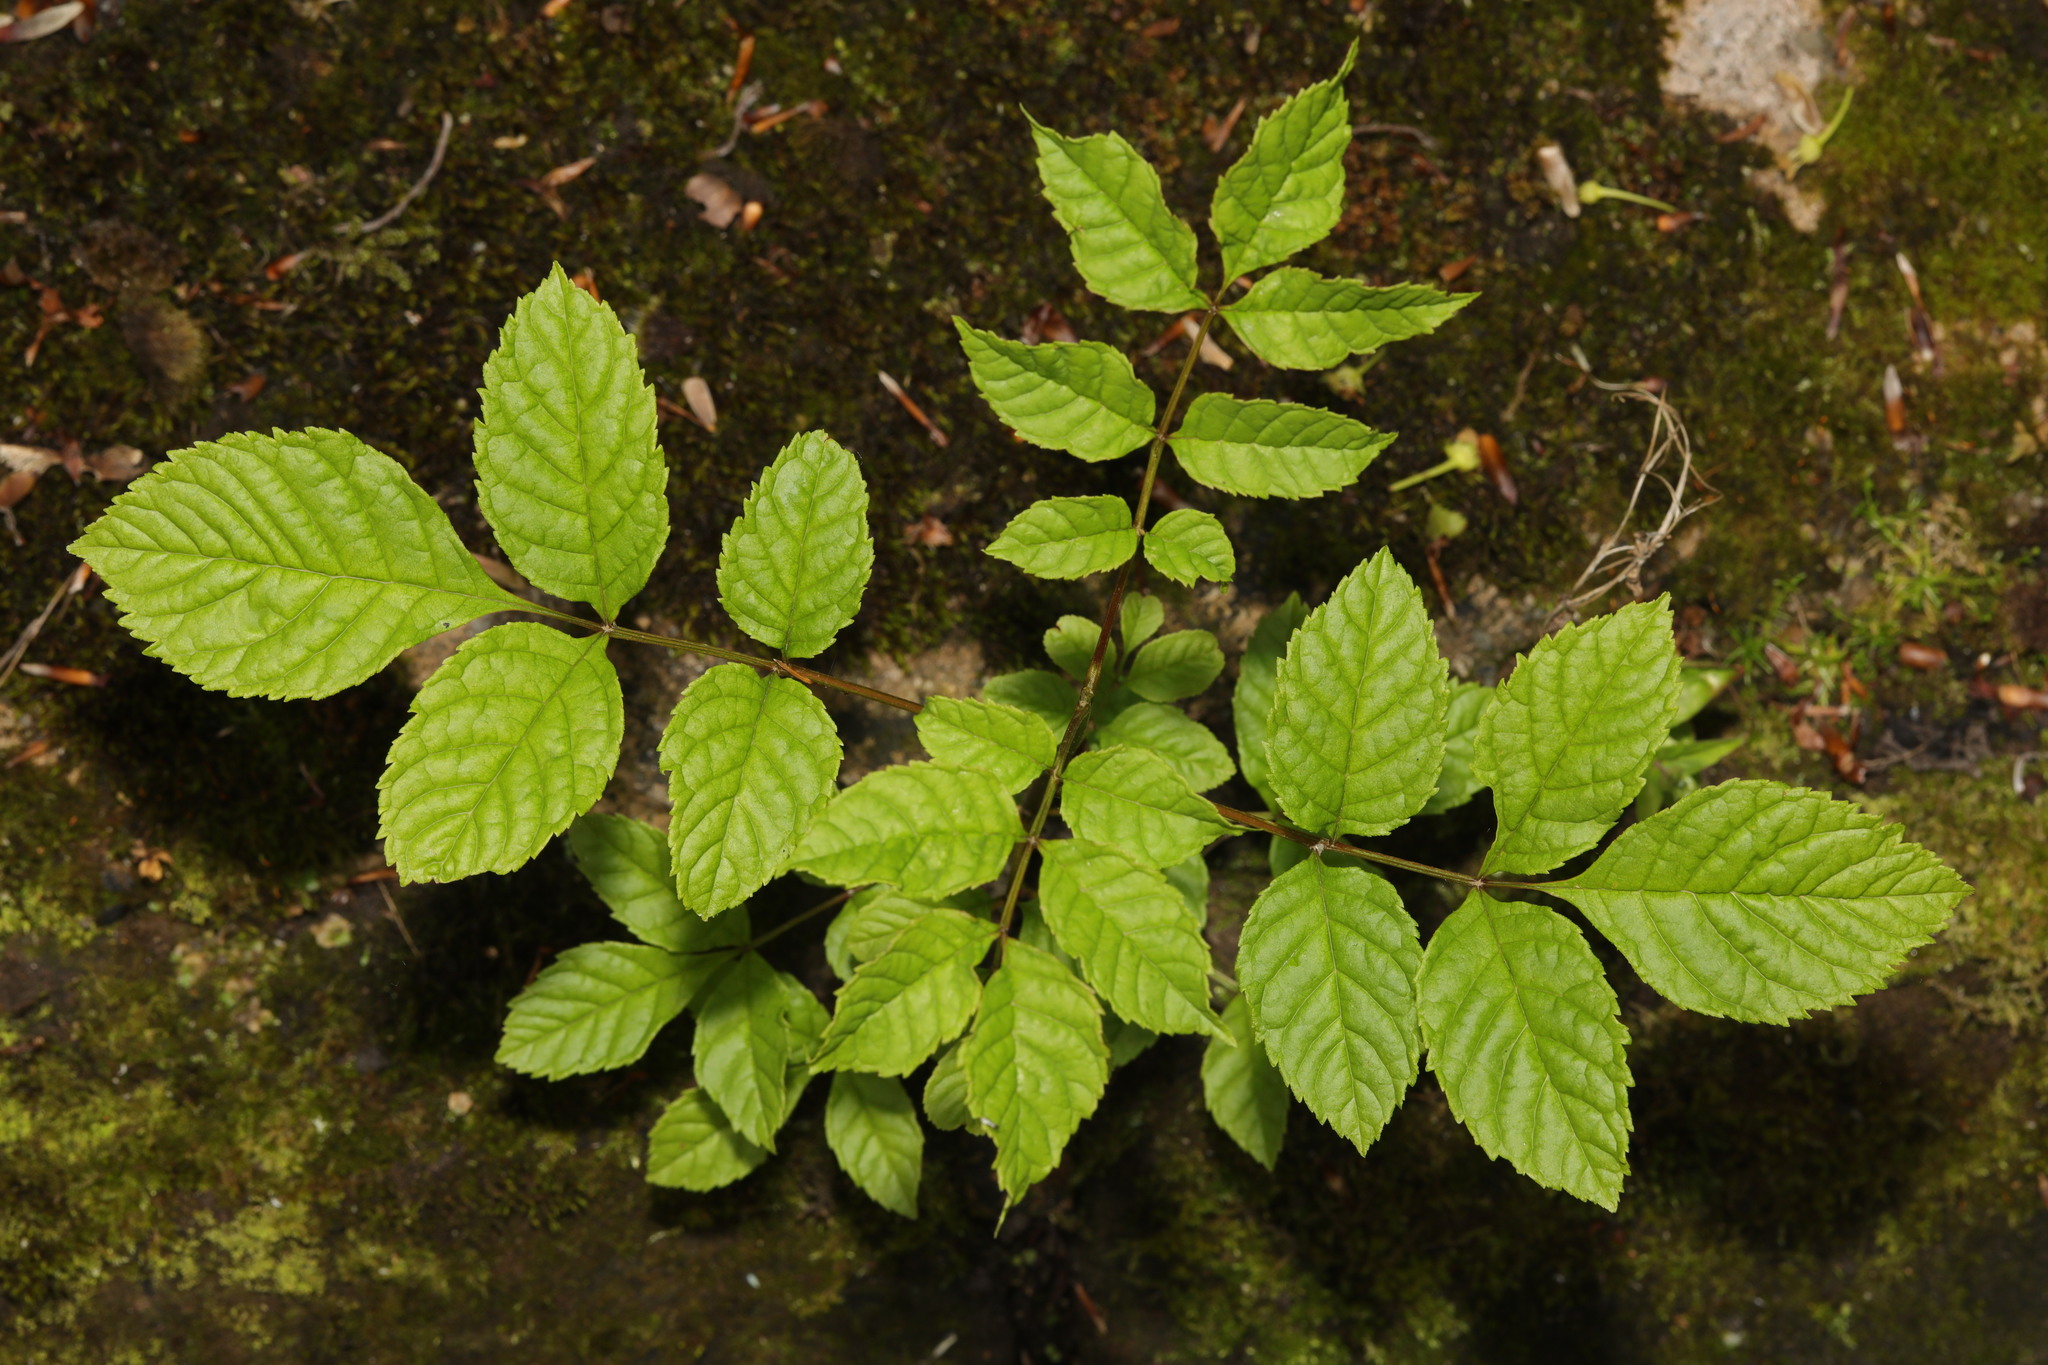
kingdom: Plantae
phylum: Tracheophyta
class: Magnoliopsida
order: Lamiales
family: Oleaceae
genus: Fraxinus
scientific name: Fraxinus excelsior
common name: European ash
